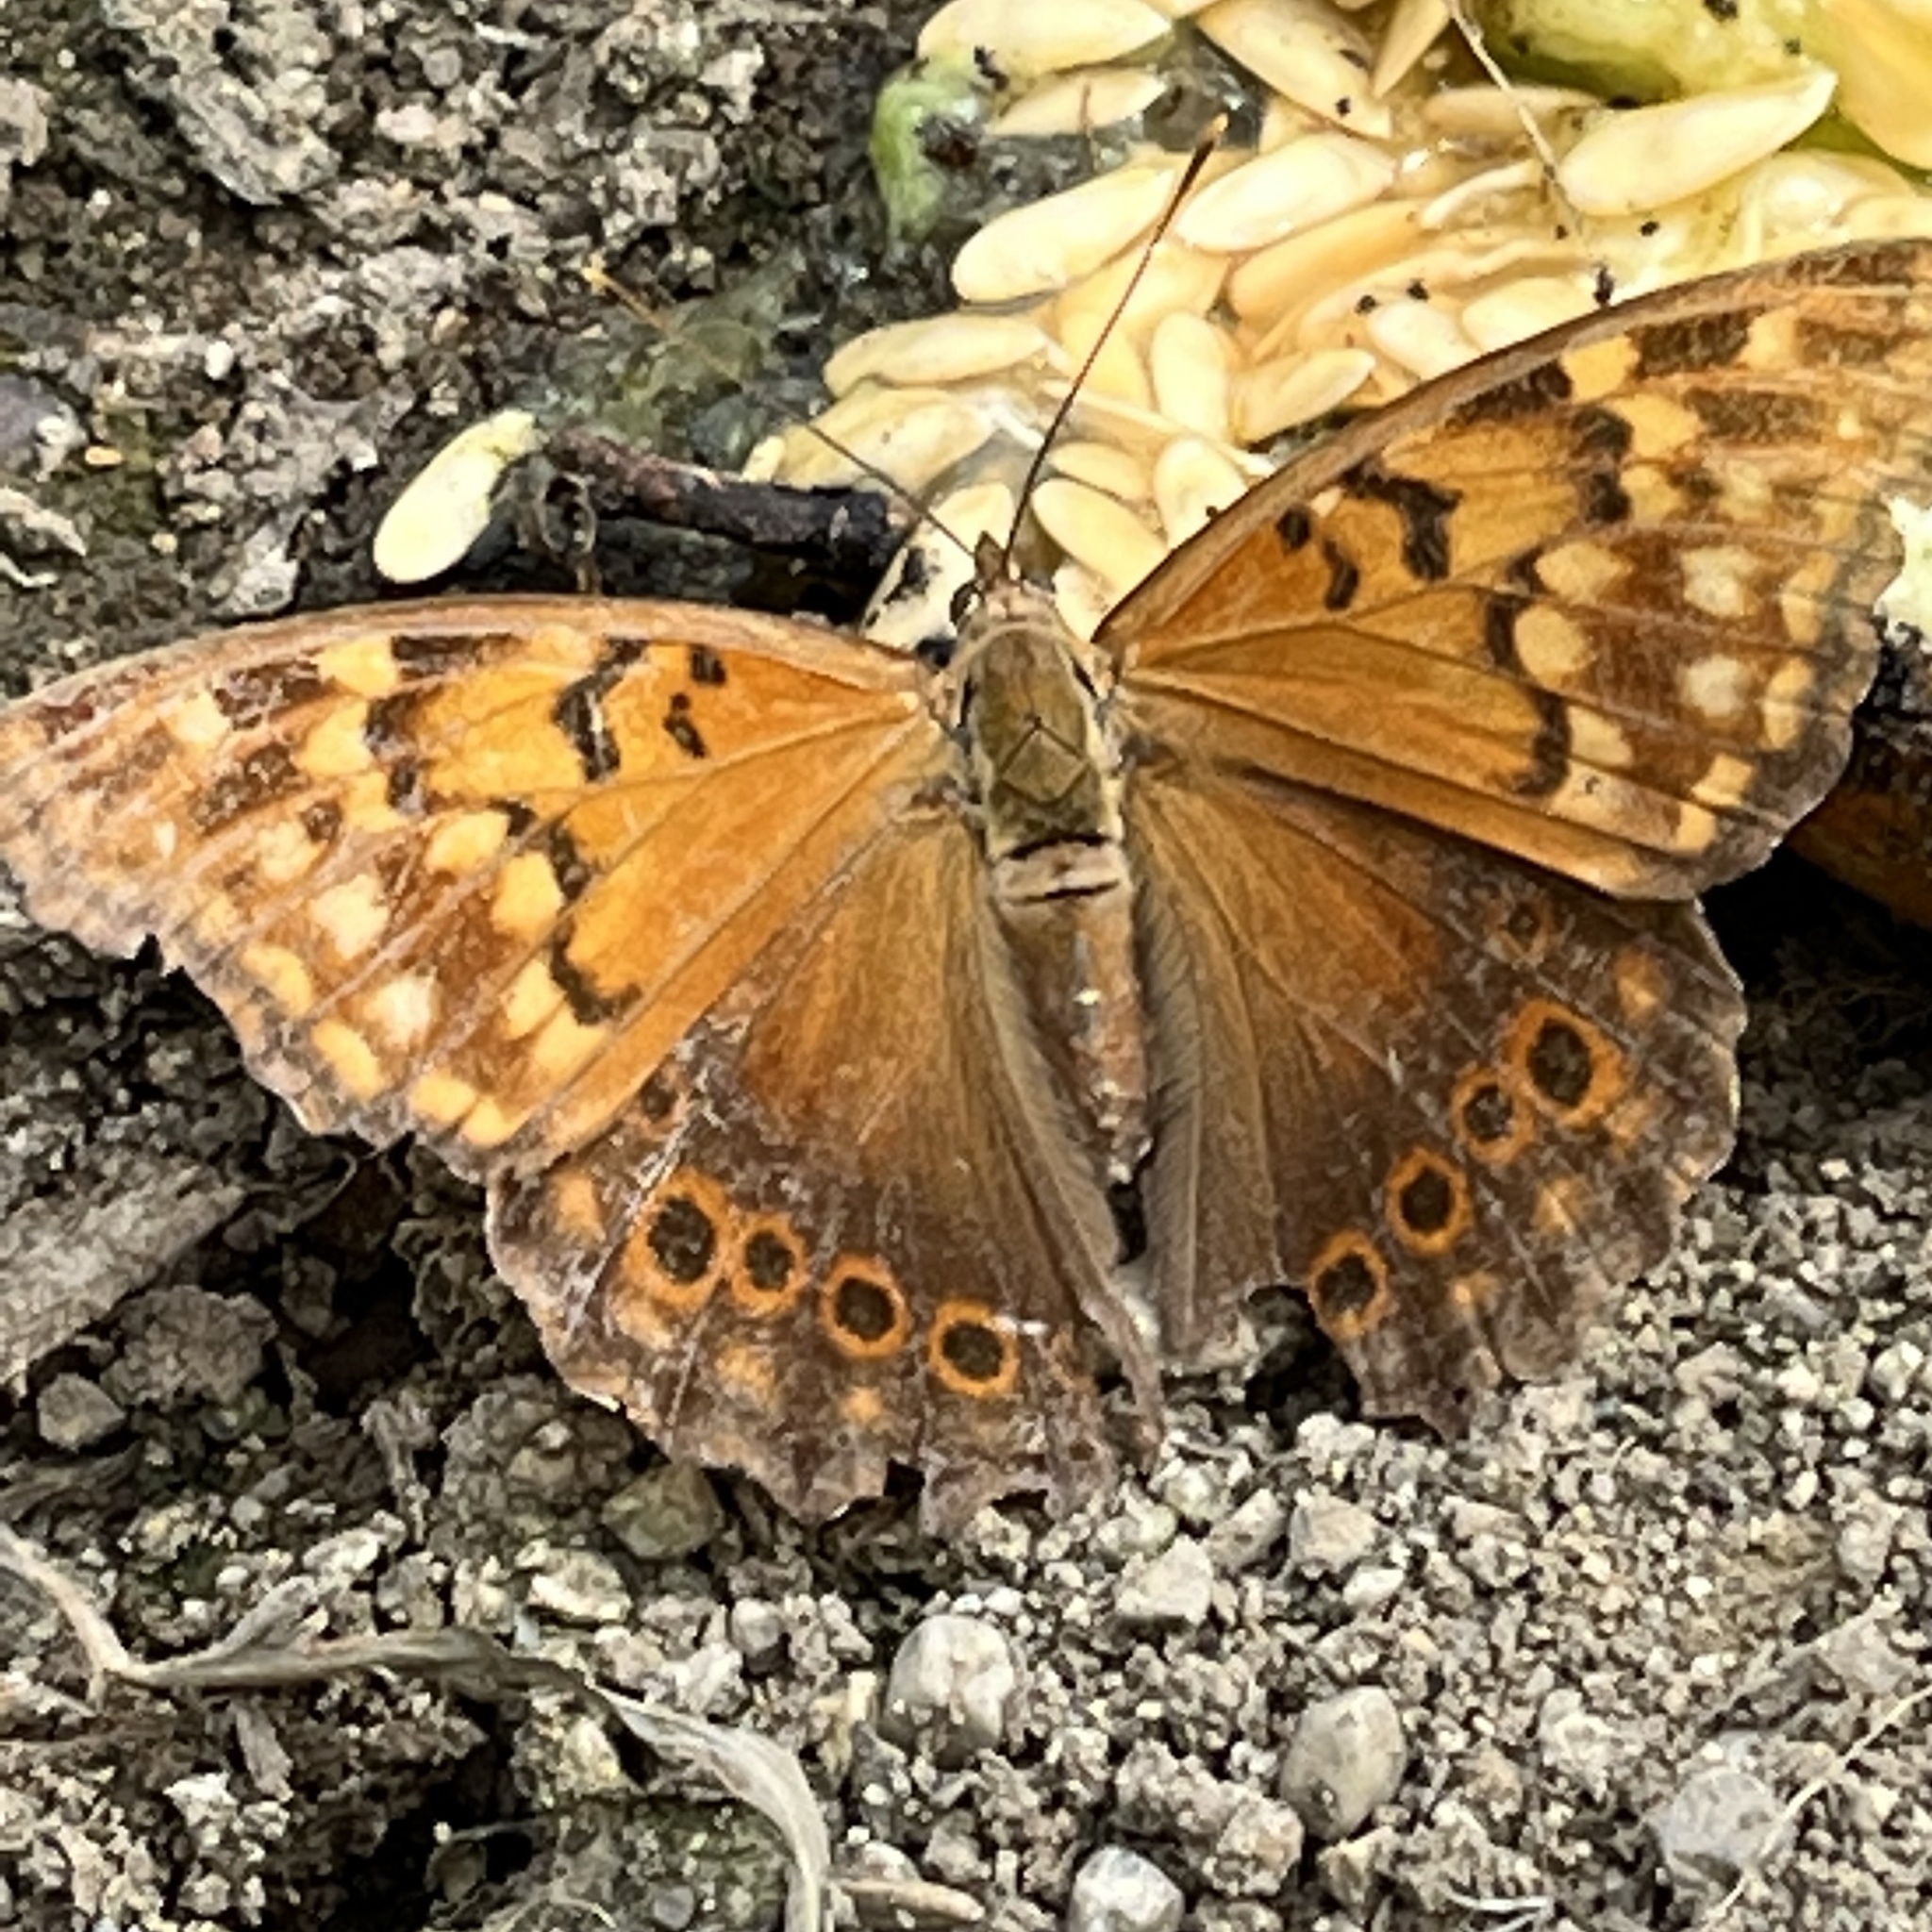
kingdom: Animalia
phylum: Arthropoda
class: Insecta
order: Lepidoptera
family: Nymphalidae
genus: Asterocampa
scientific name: Asterocampa clyton
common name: Tawny emperor
